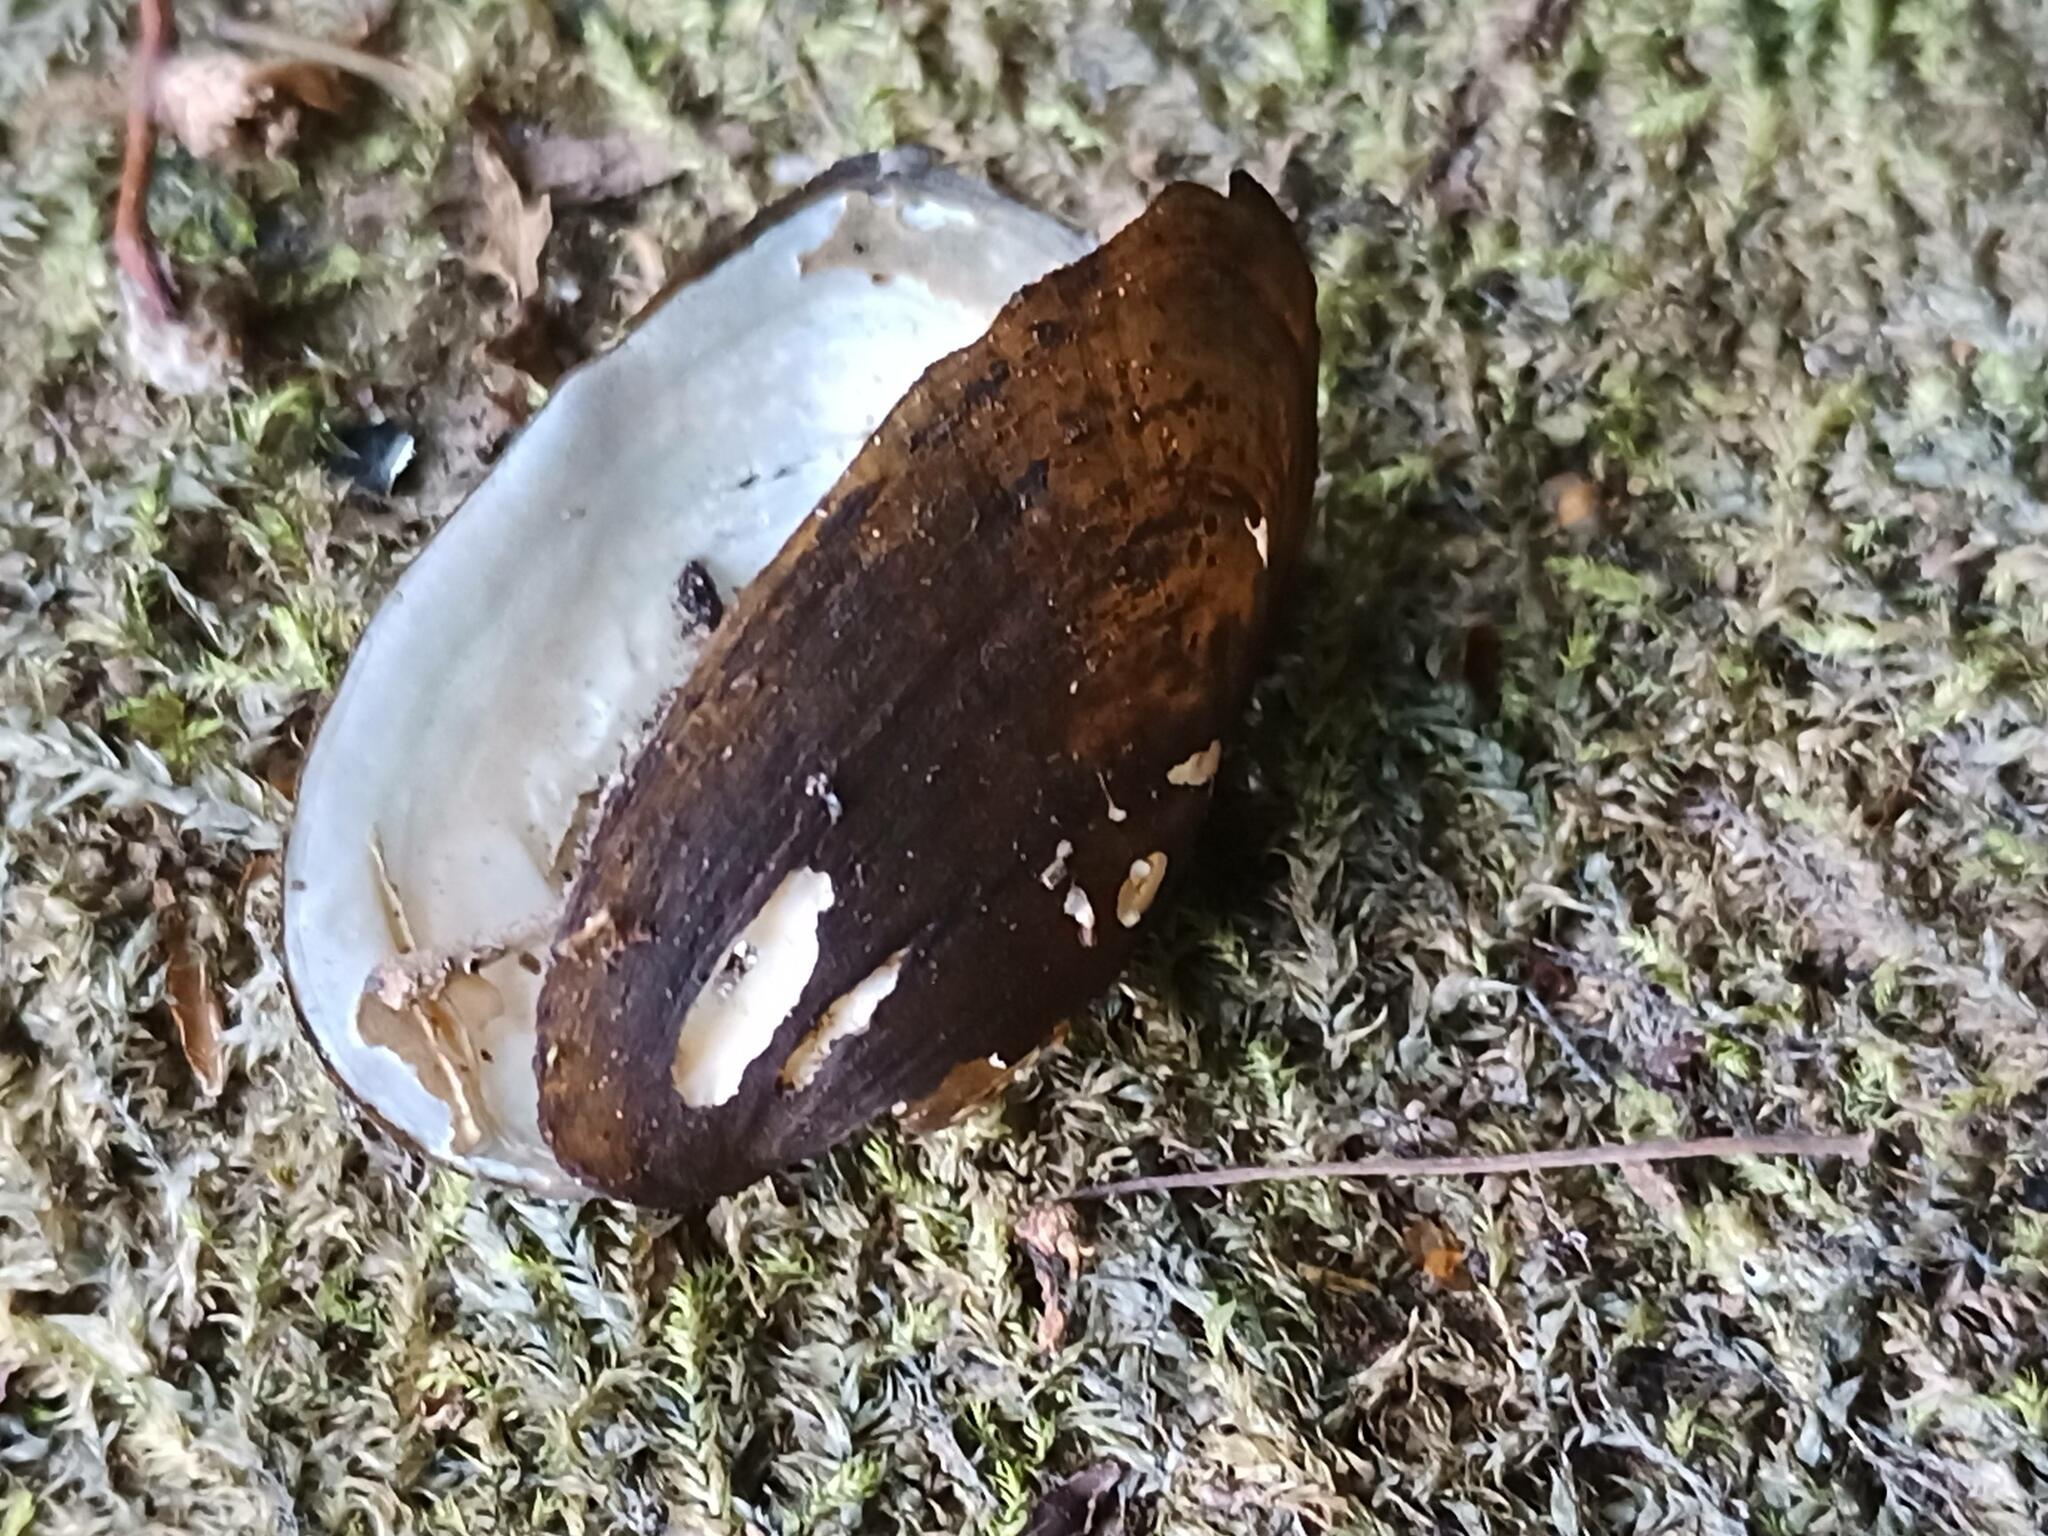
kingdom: Animalia
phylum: Mollusca
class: Bivalvia
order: Unionida
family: Margaritiferidae
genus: Margaritifera
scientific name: Margaritifera margaritifera
